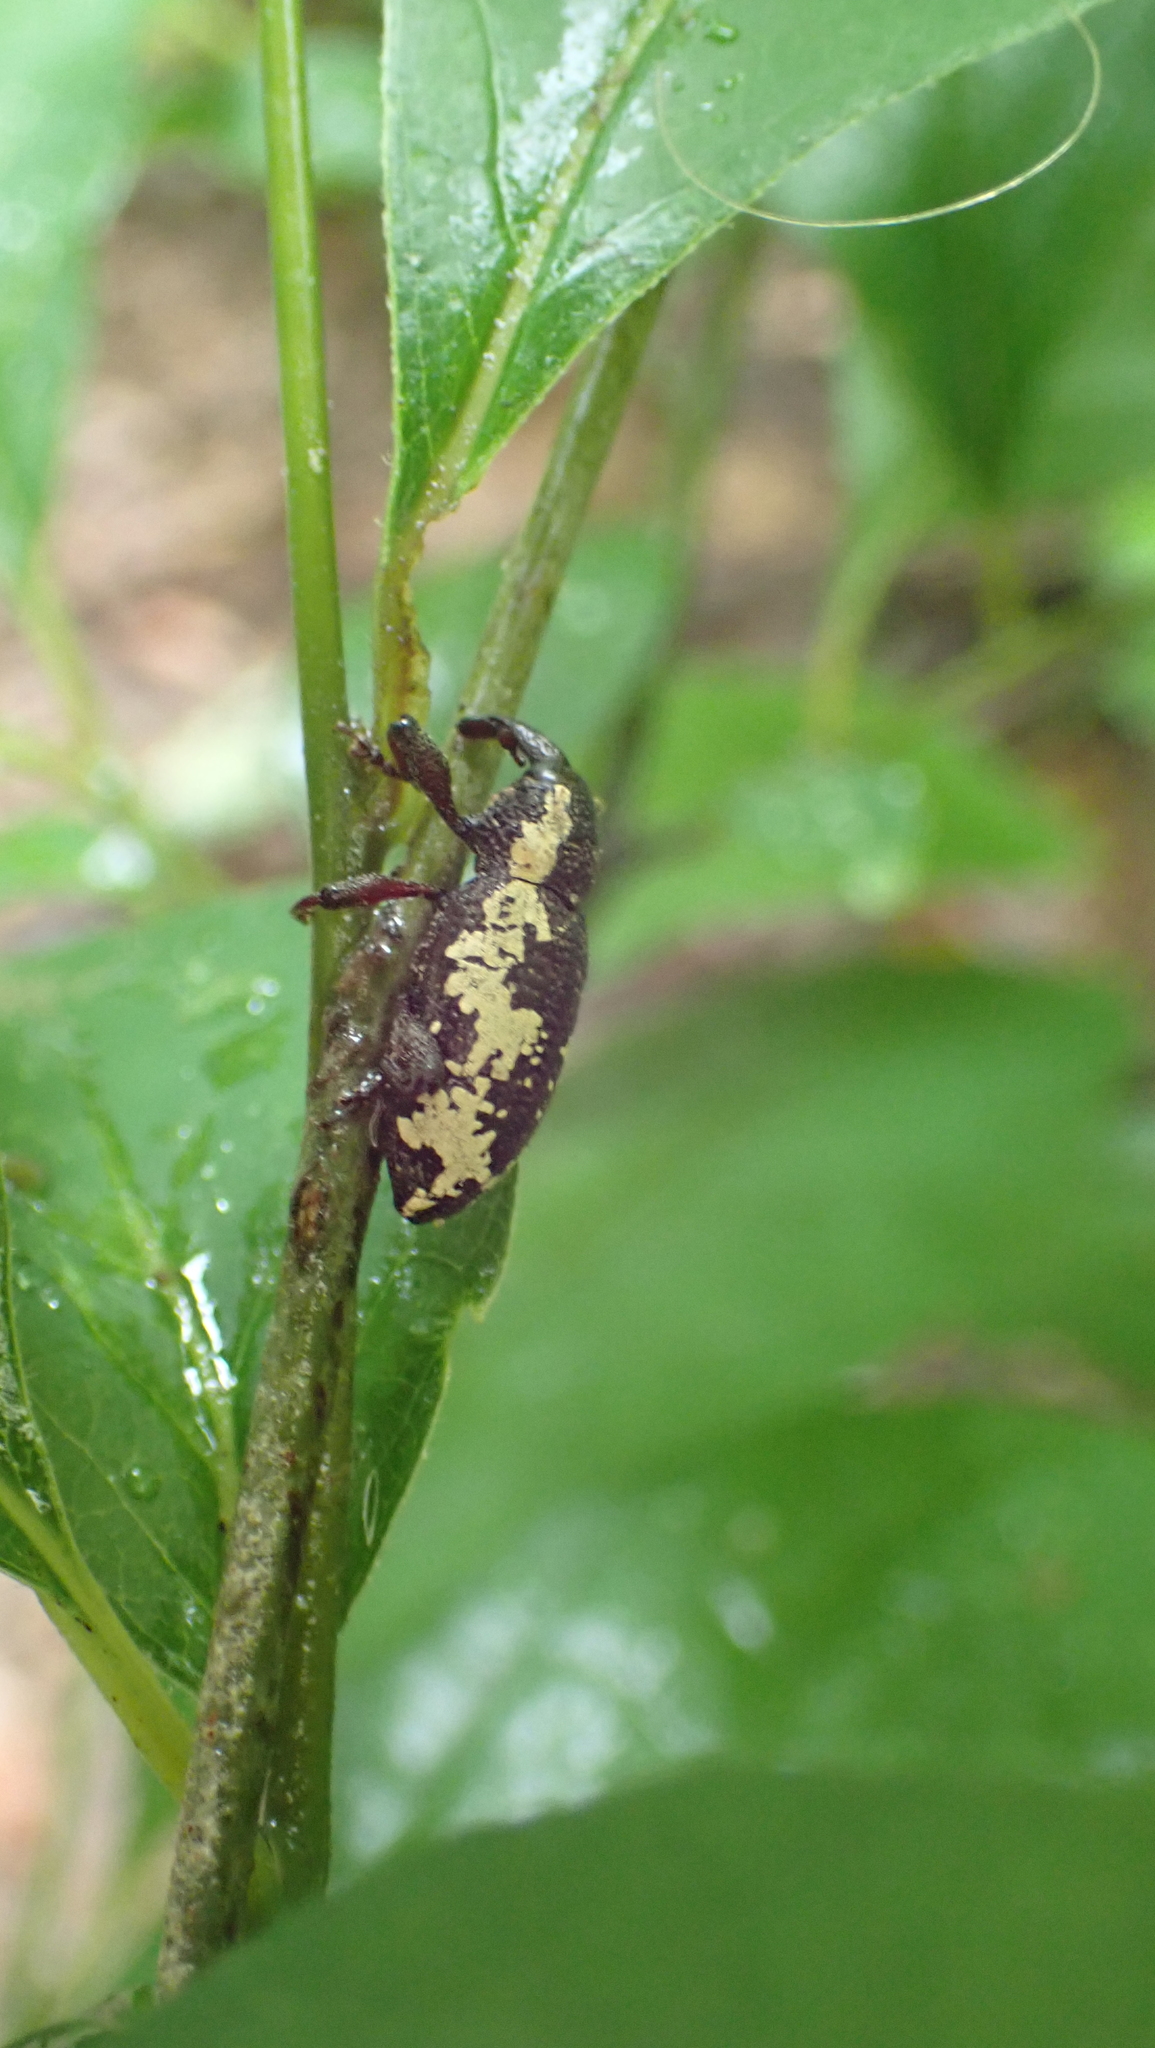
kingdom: Animalia
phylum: Arthropoda
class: Insecta
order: Coleoptera
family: Curculionidae
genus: Heilipus
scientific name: Heilipus squamosus
